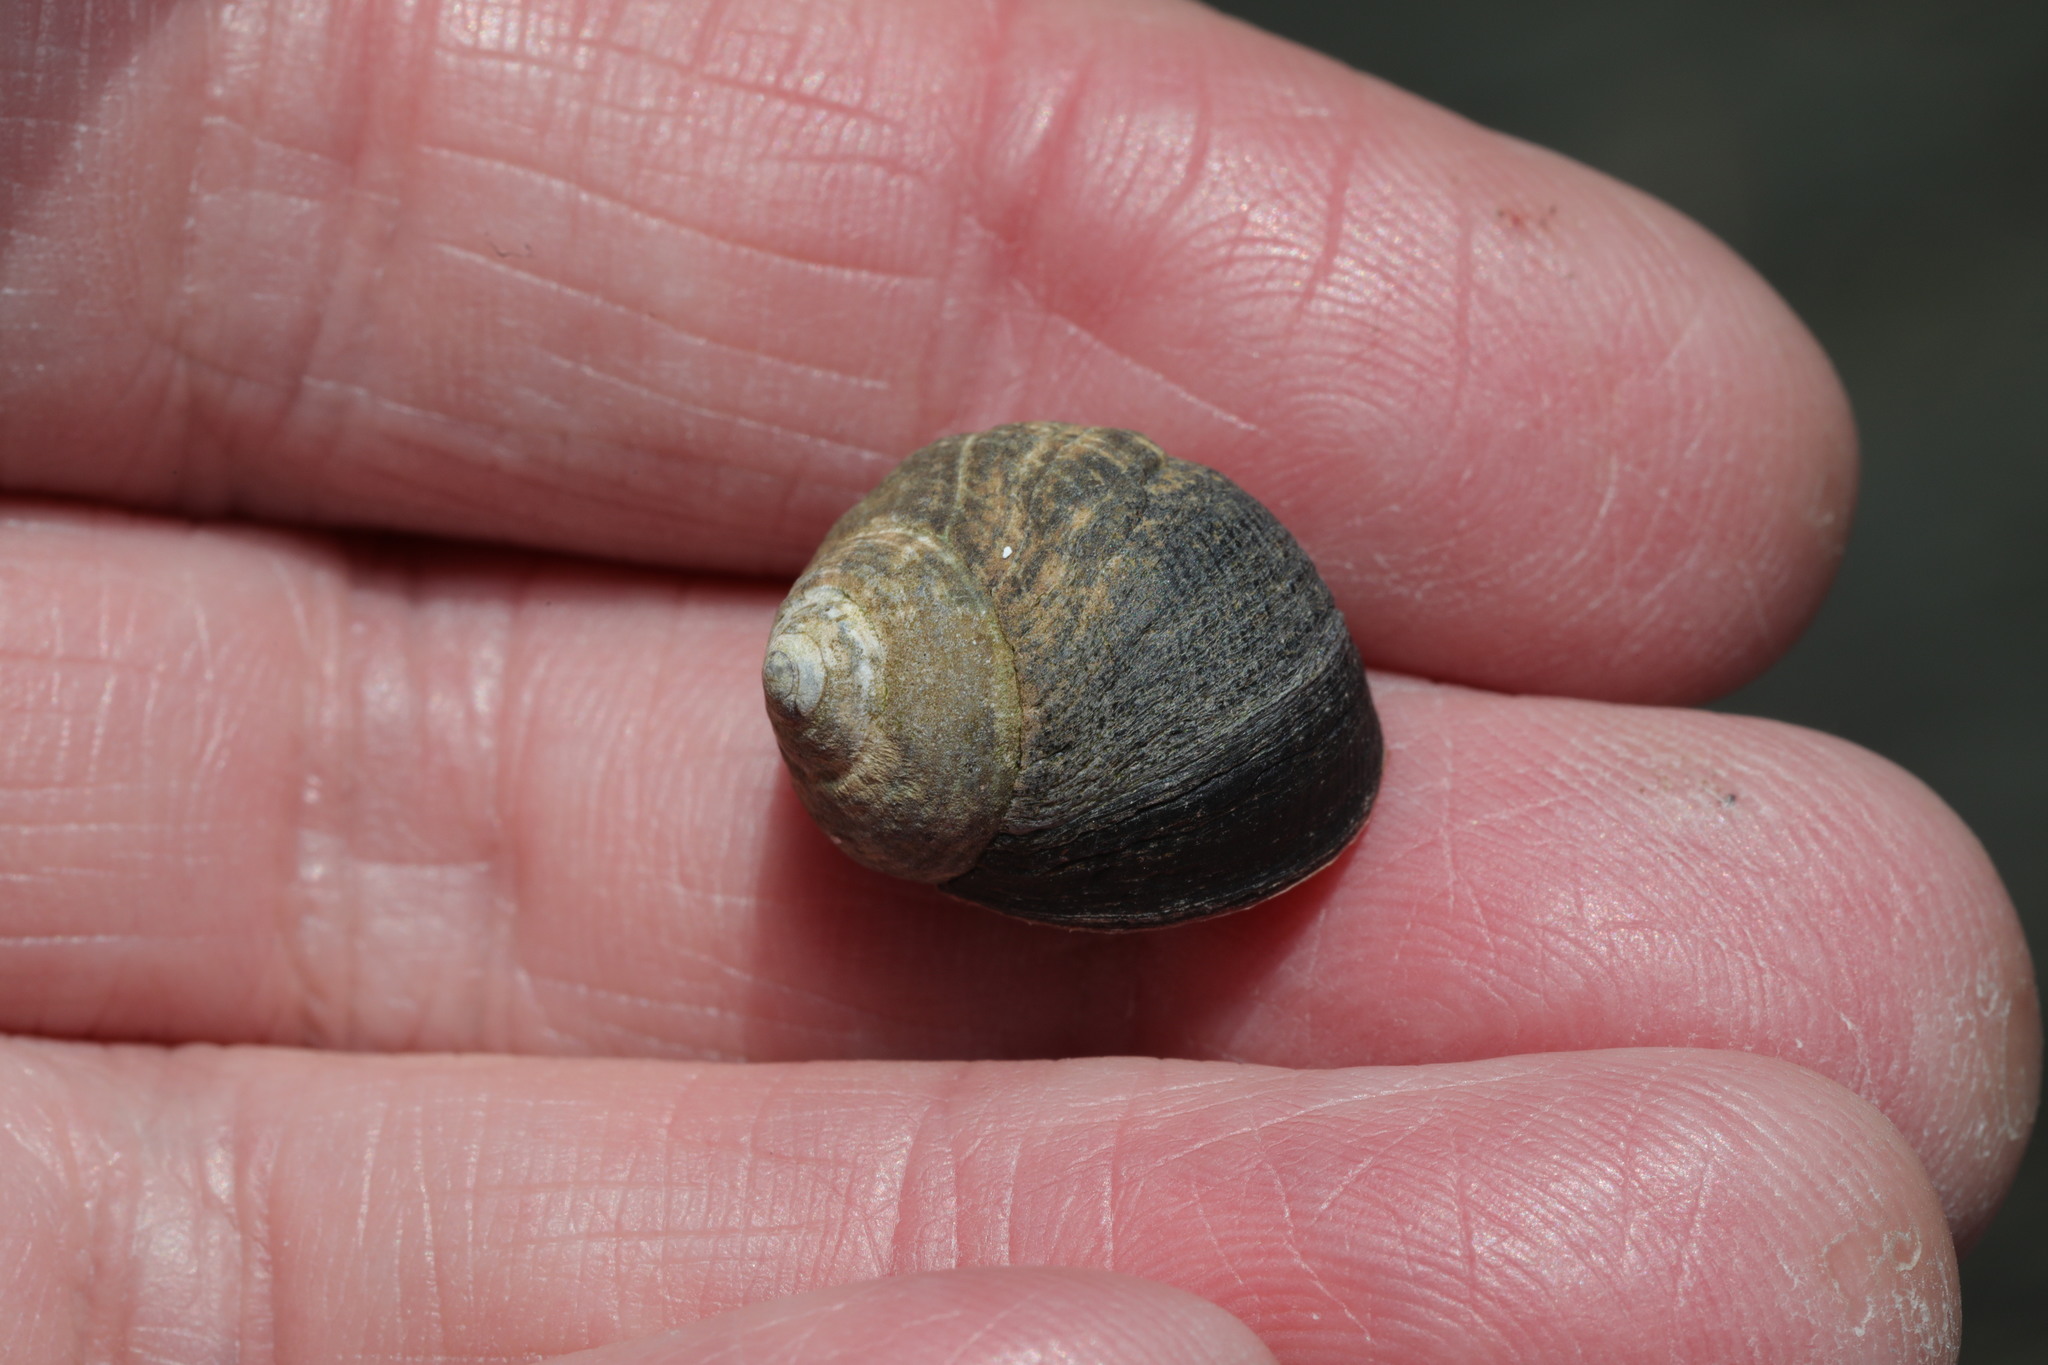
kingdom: Animalia
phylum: Mollusca
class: Gastropoda
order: Littorinimorpha
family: Littorinidae
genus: Littorina
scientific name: Littorina littorea
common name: Common periwinkle
